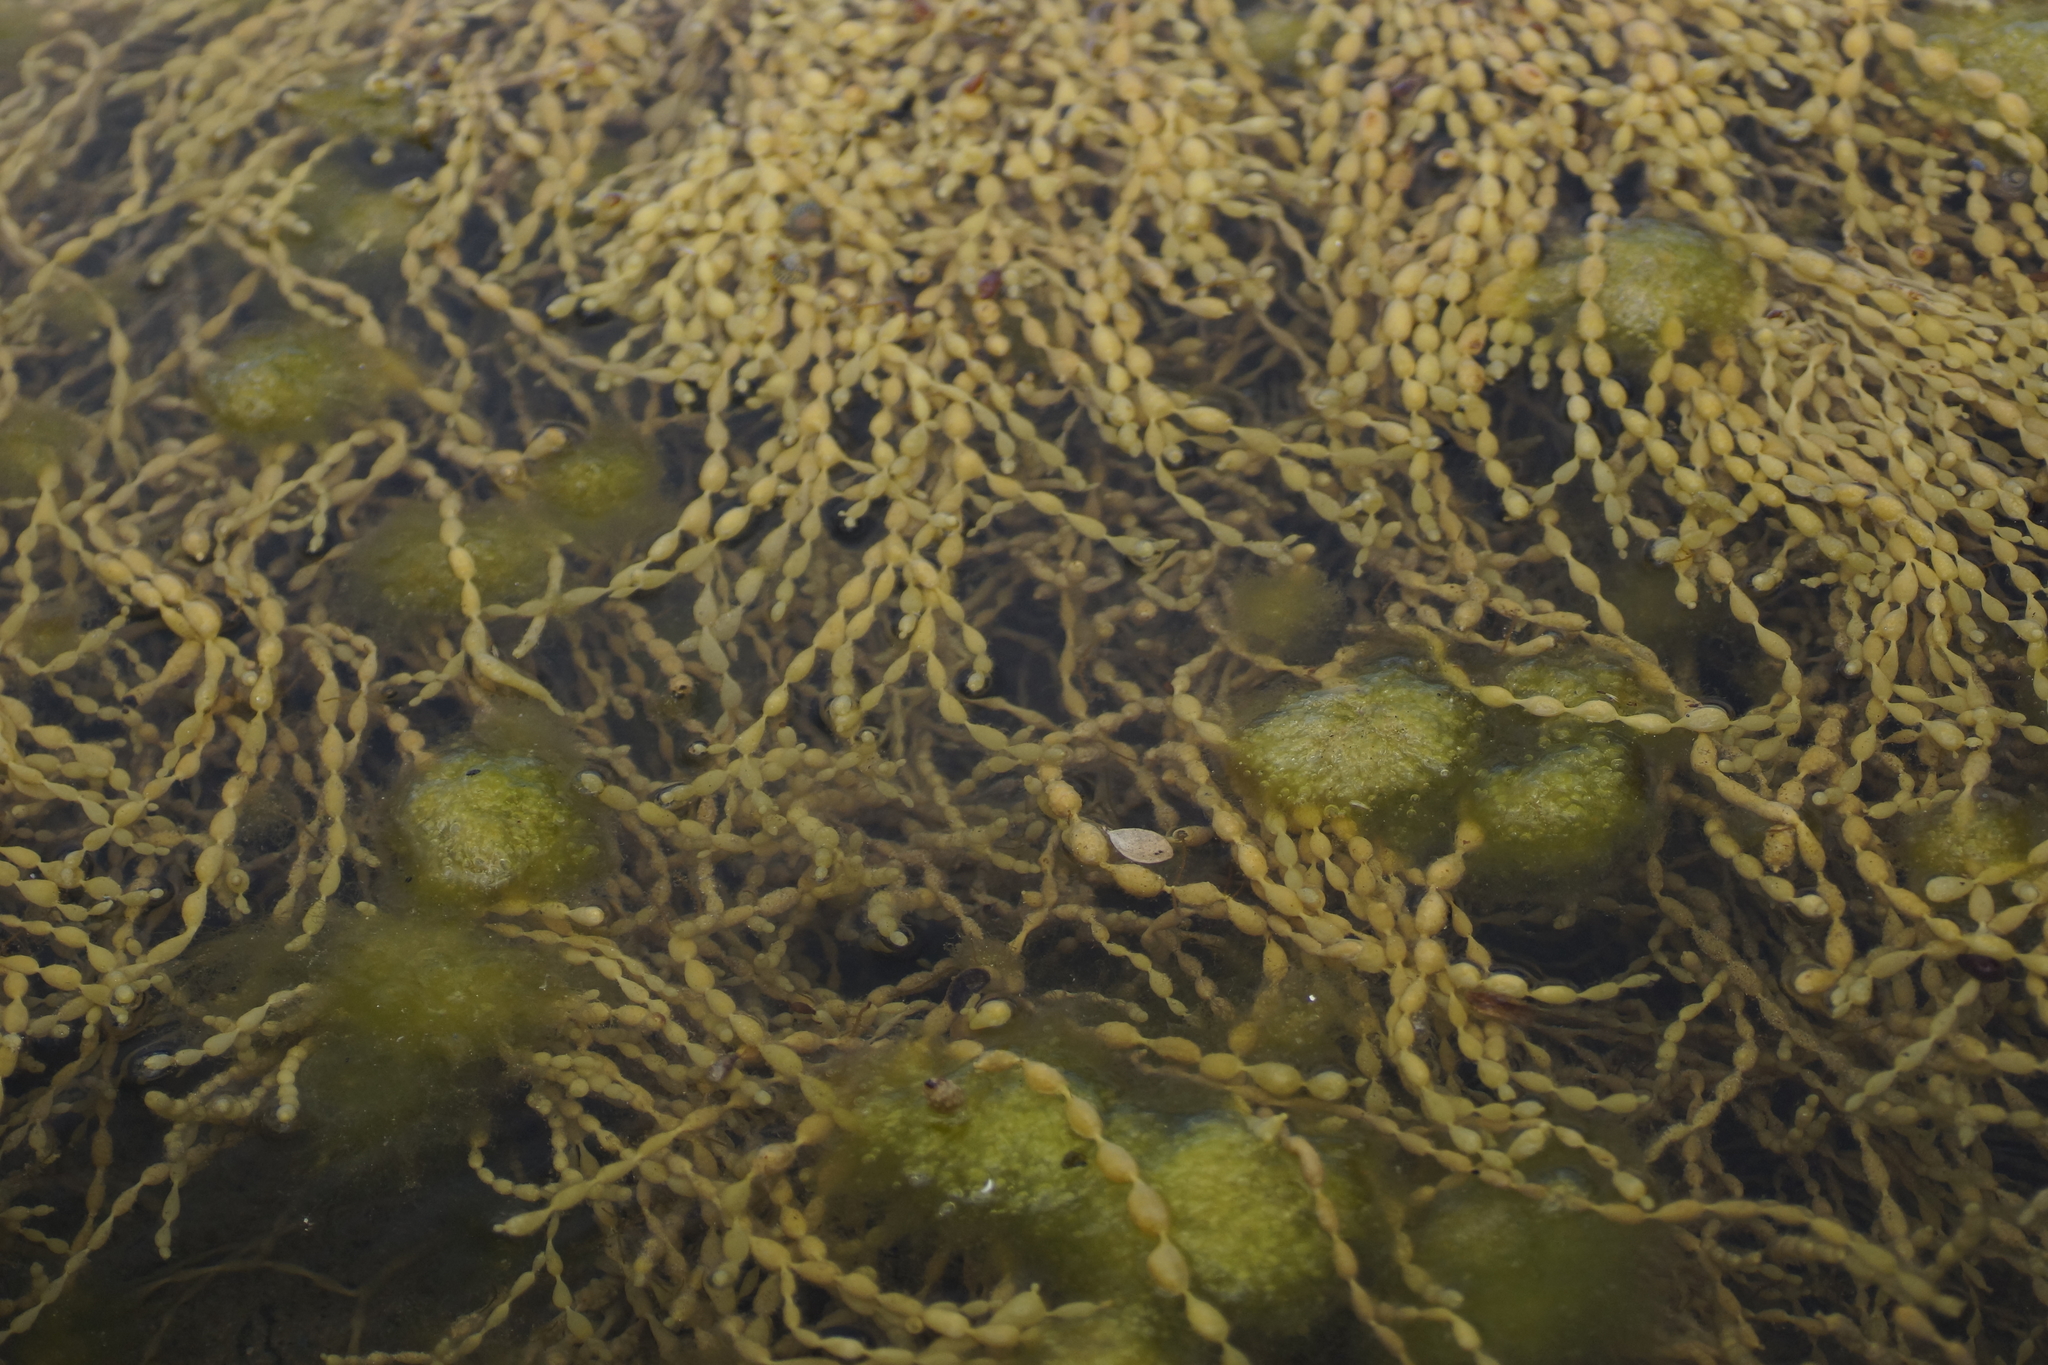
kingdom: Chromista
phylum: Ochrophyta
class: Phaeophyceae
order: Fucales
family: Hormosiraceae
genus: Hormosira
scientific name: Hormosira banksii
